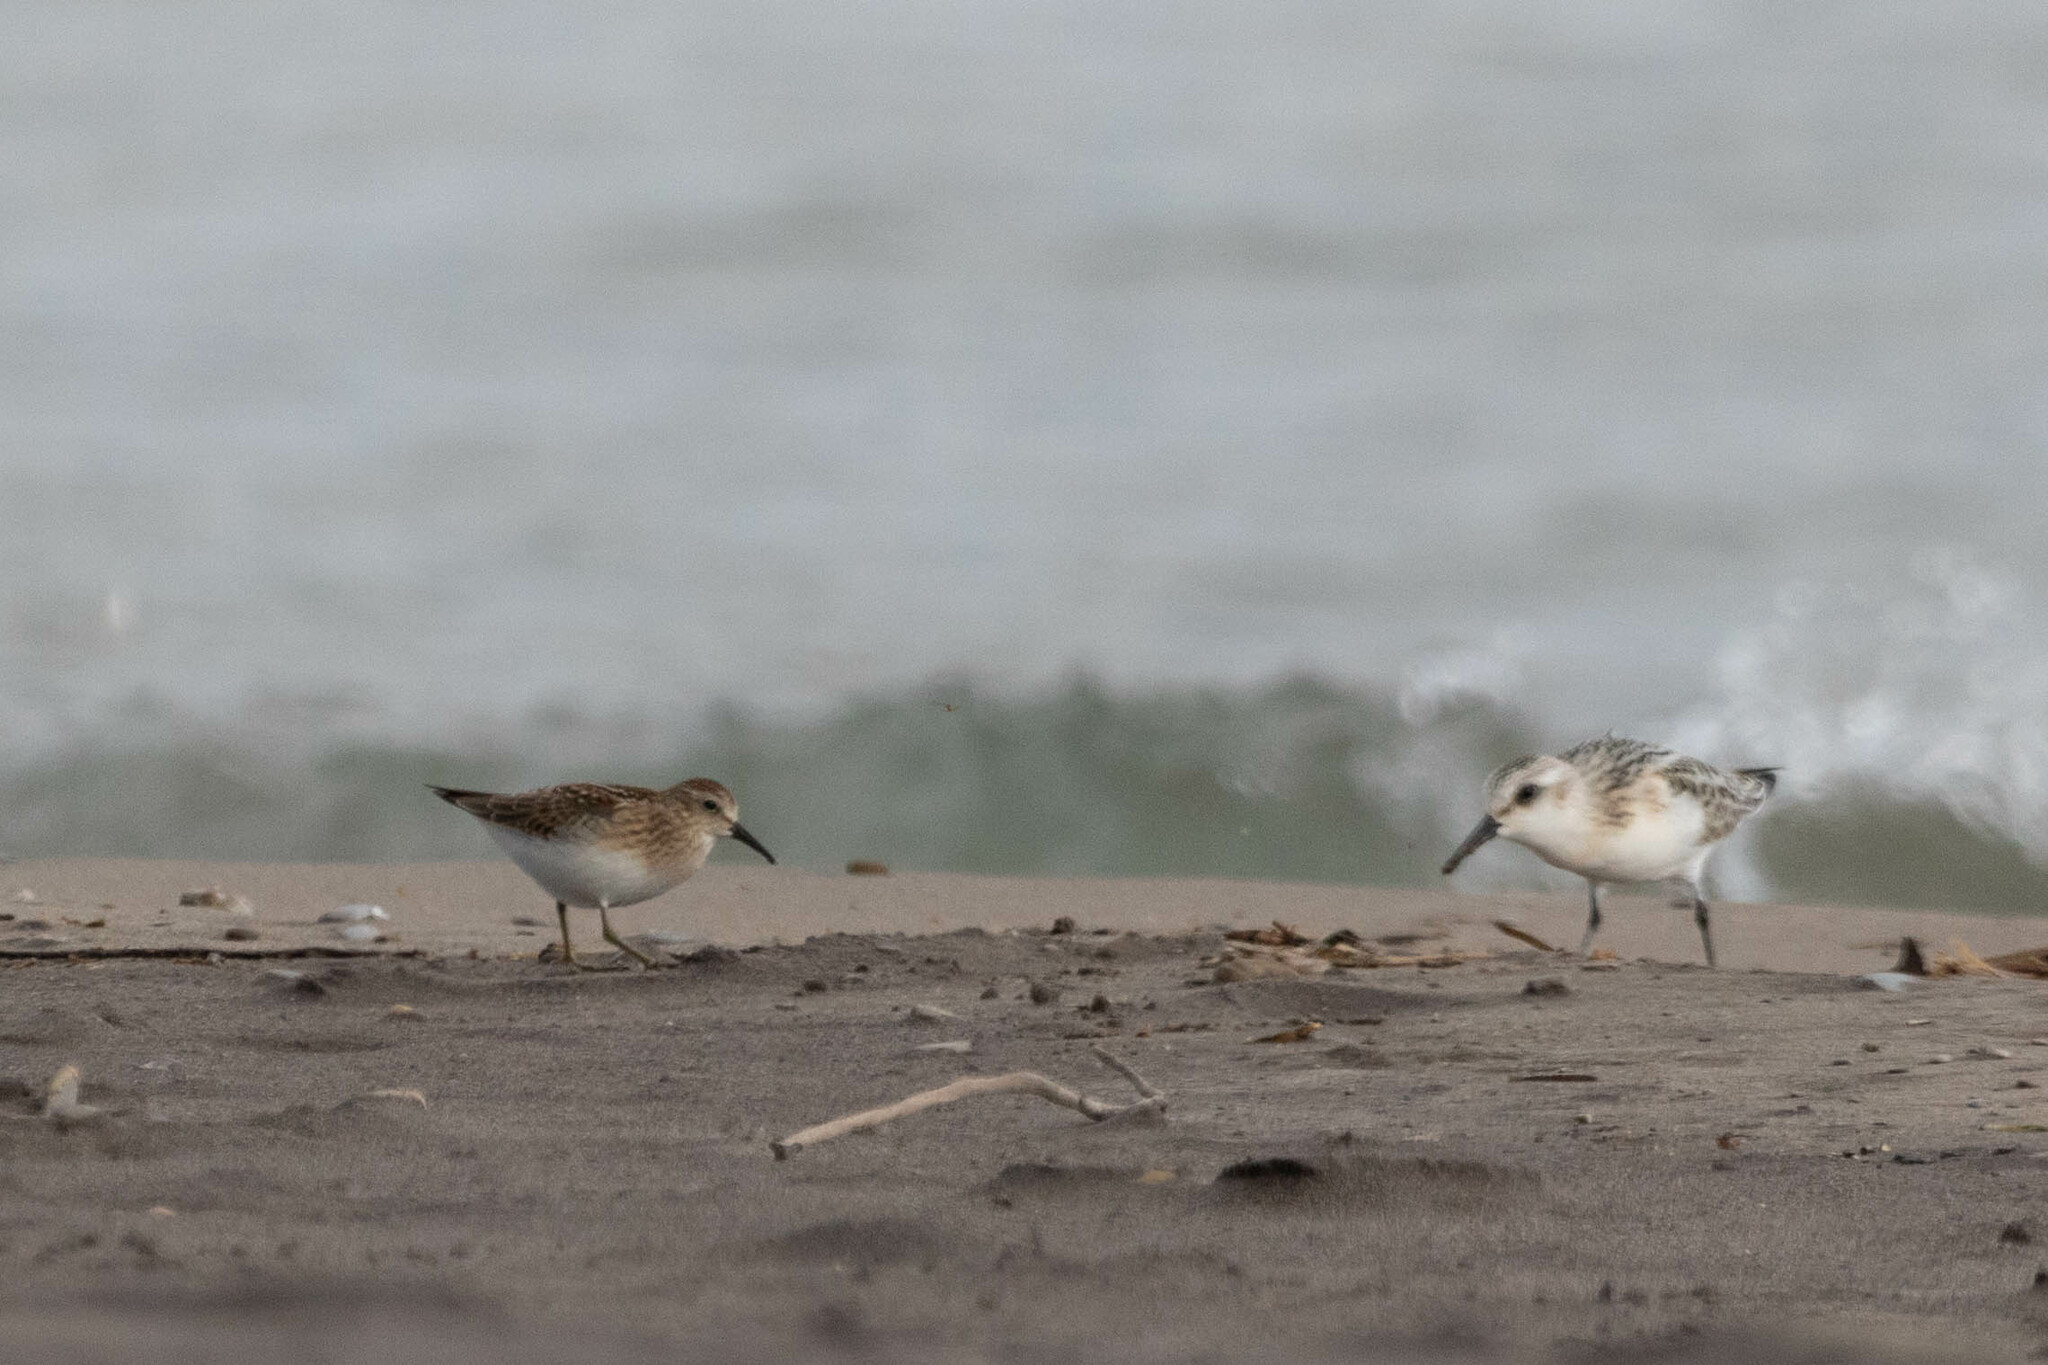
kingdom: Animalia
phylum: Chordata
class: Aves
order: Charadriiformes
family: Scolopacidae
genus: Calidris
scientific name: Calidris minutilla
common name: Least sandpiper
